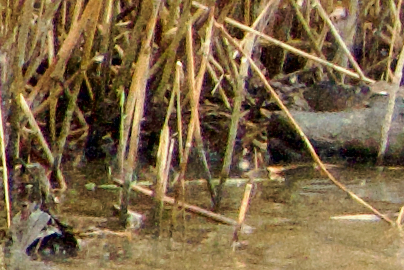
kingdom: Animalia
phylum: Chordata
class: Aves
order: Gruiformes
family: Rallidae
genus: Porzana
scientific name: Porzana porzana
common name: Spotted crake
